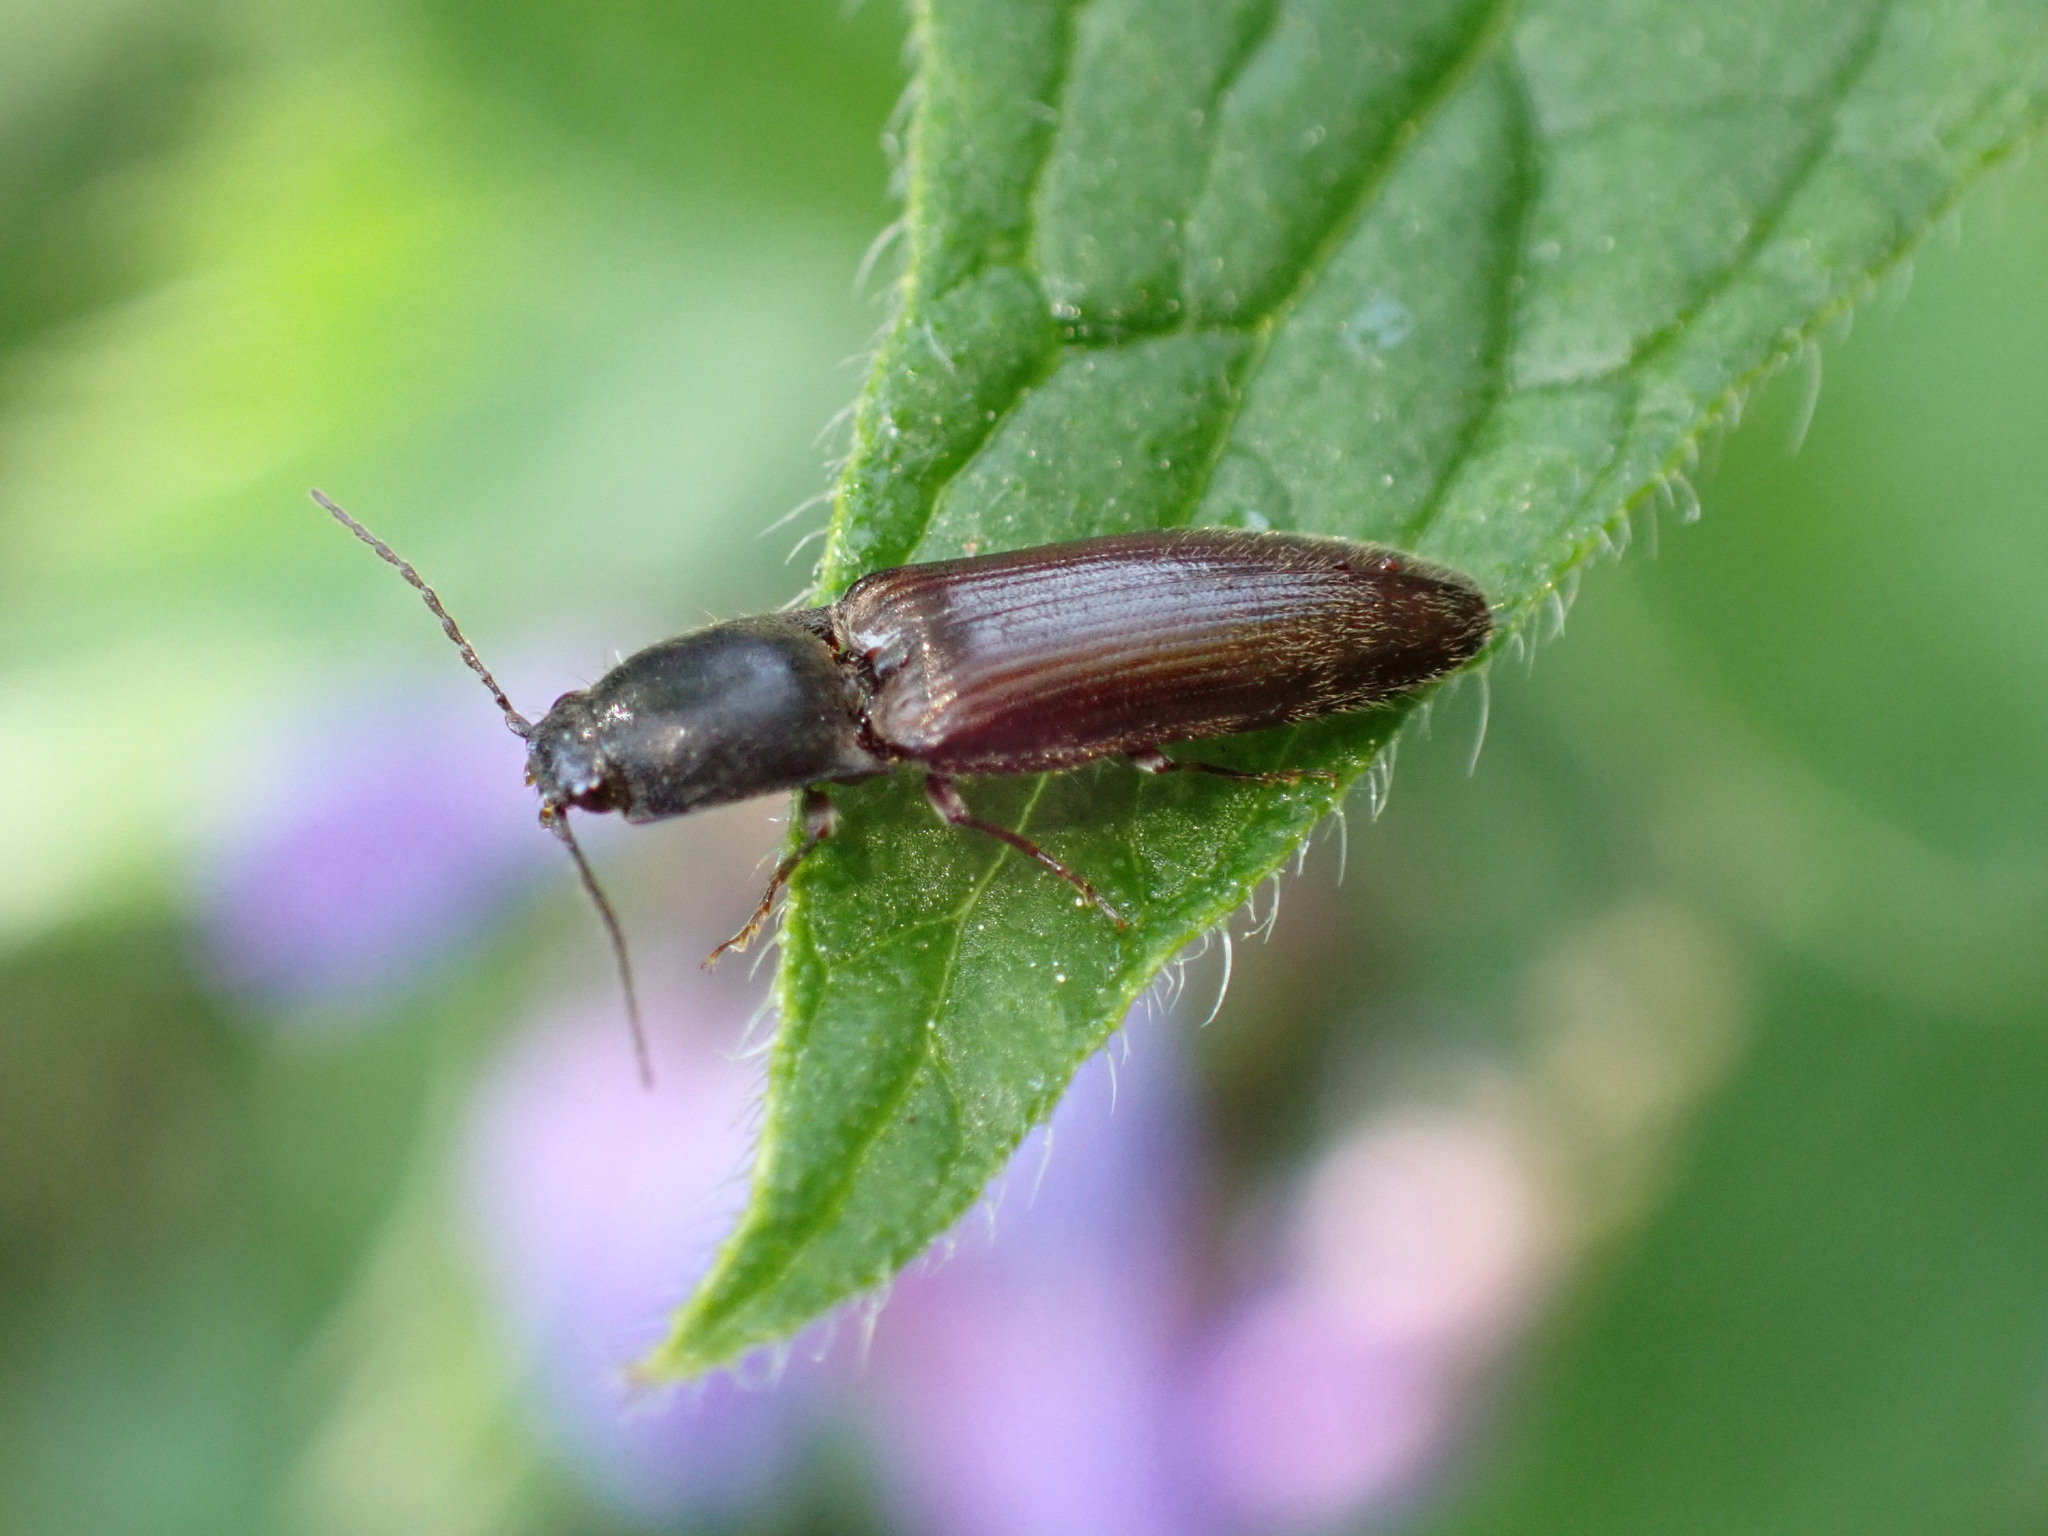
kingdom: Animalia
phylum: Arthropoda
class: Insecta
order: Coleoptera
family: Elateridae
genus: Athous
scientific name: Athous haemorrhoidalis
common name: Red-brown click beetle
